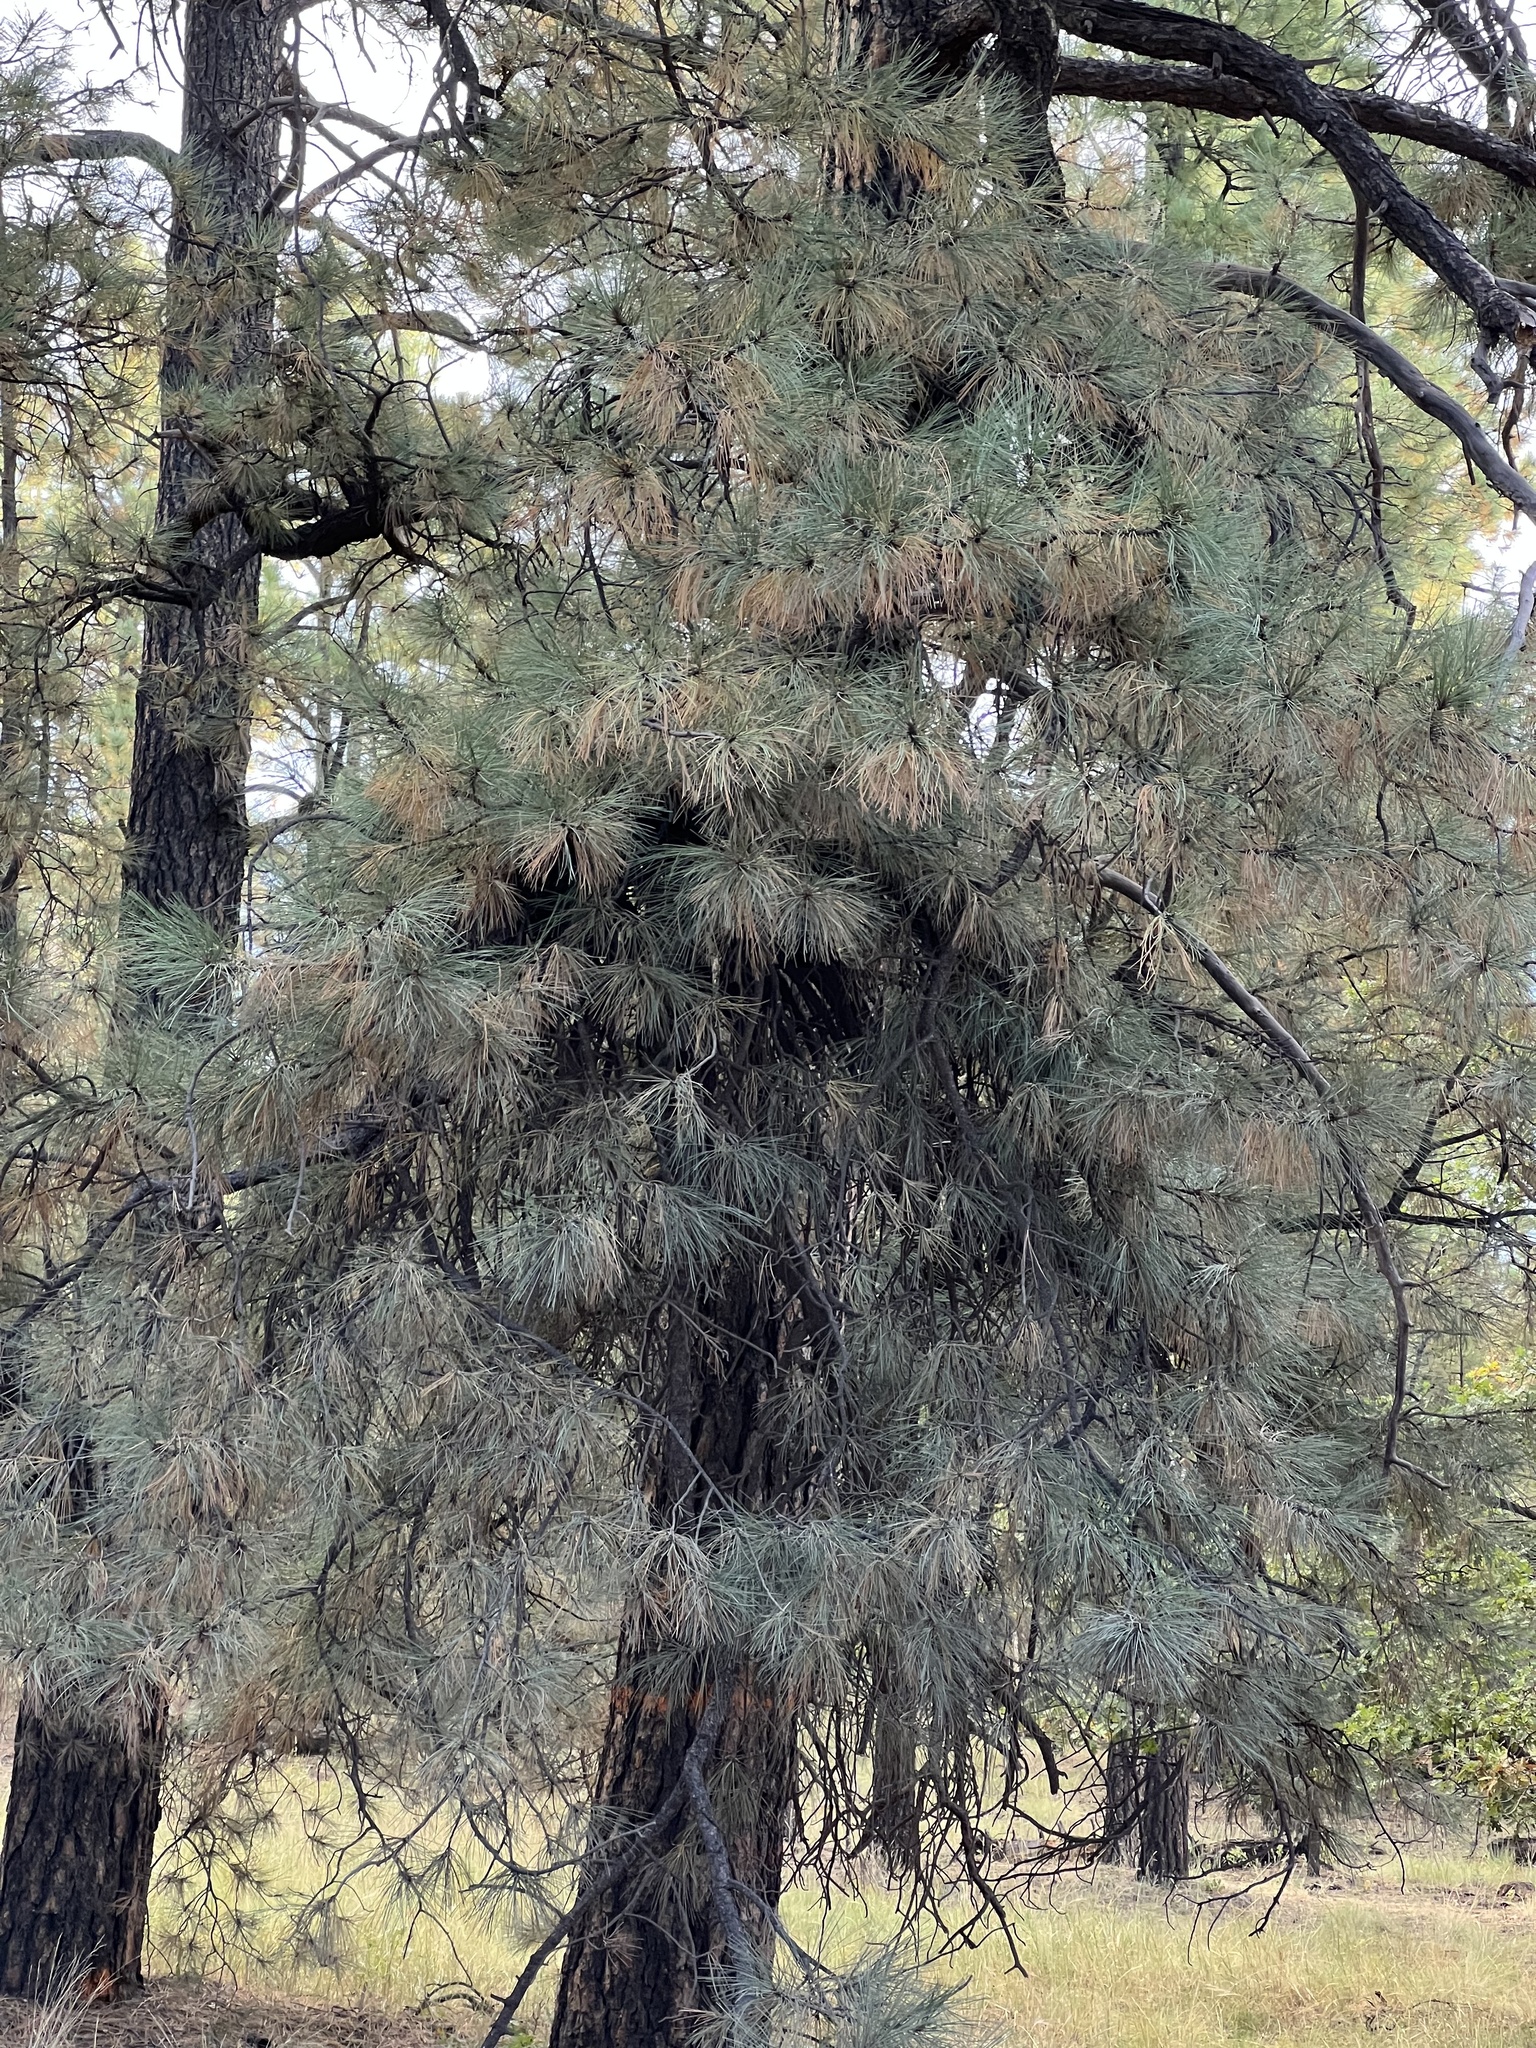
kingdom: Plantae
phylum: Tracheophyta
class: Pinopsida
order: Pinales
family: Pinaceae
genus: Pinus
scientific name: Pinus ponderosa
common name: Western yellow-pine
